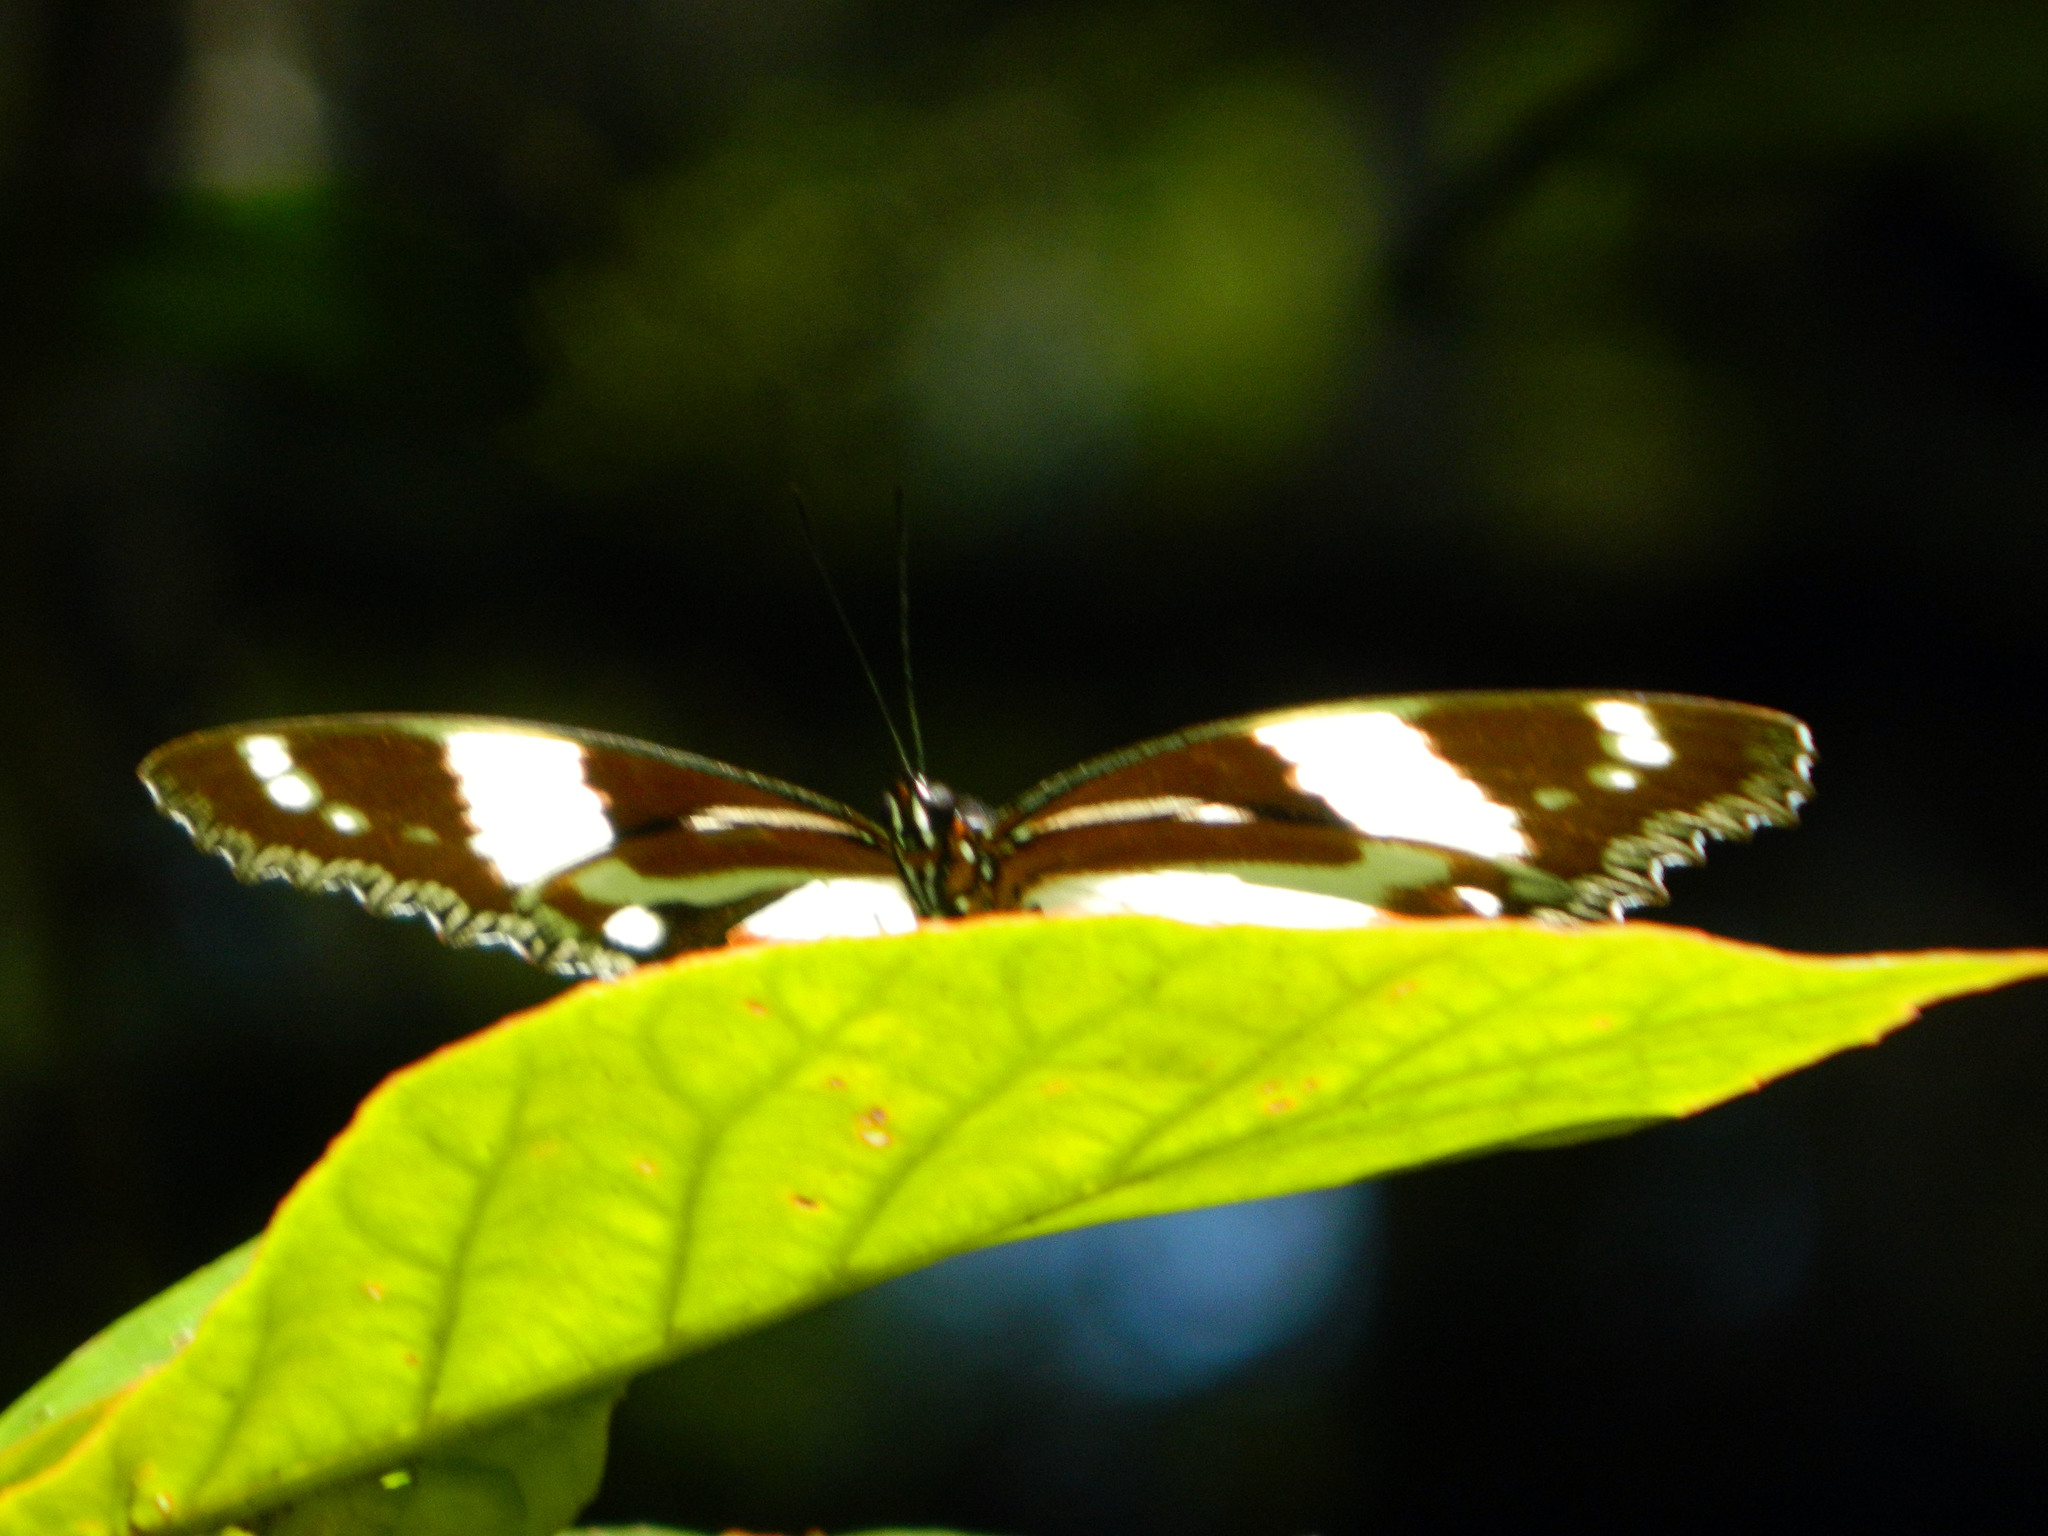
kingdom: Animalia
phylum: Arthropoda
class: Insecta
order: Lepidoptera
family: Nymphalidae
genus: Hypolimnas
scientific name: Hypolimnas dexithea
